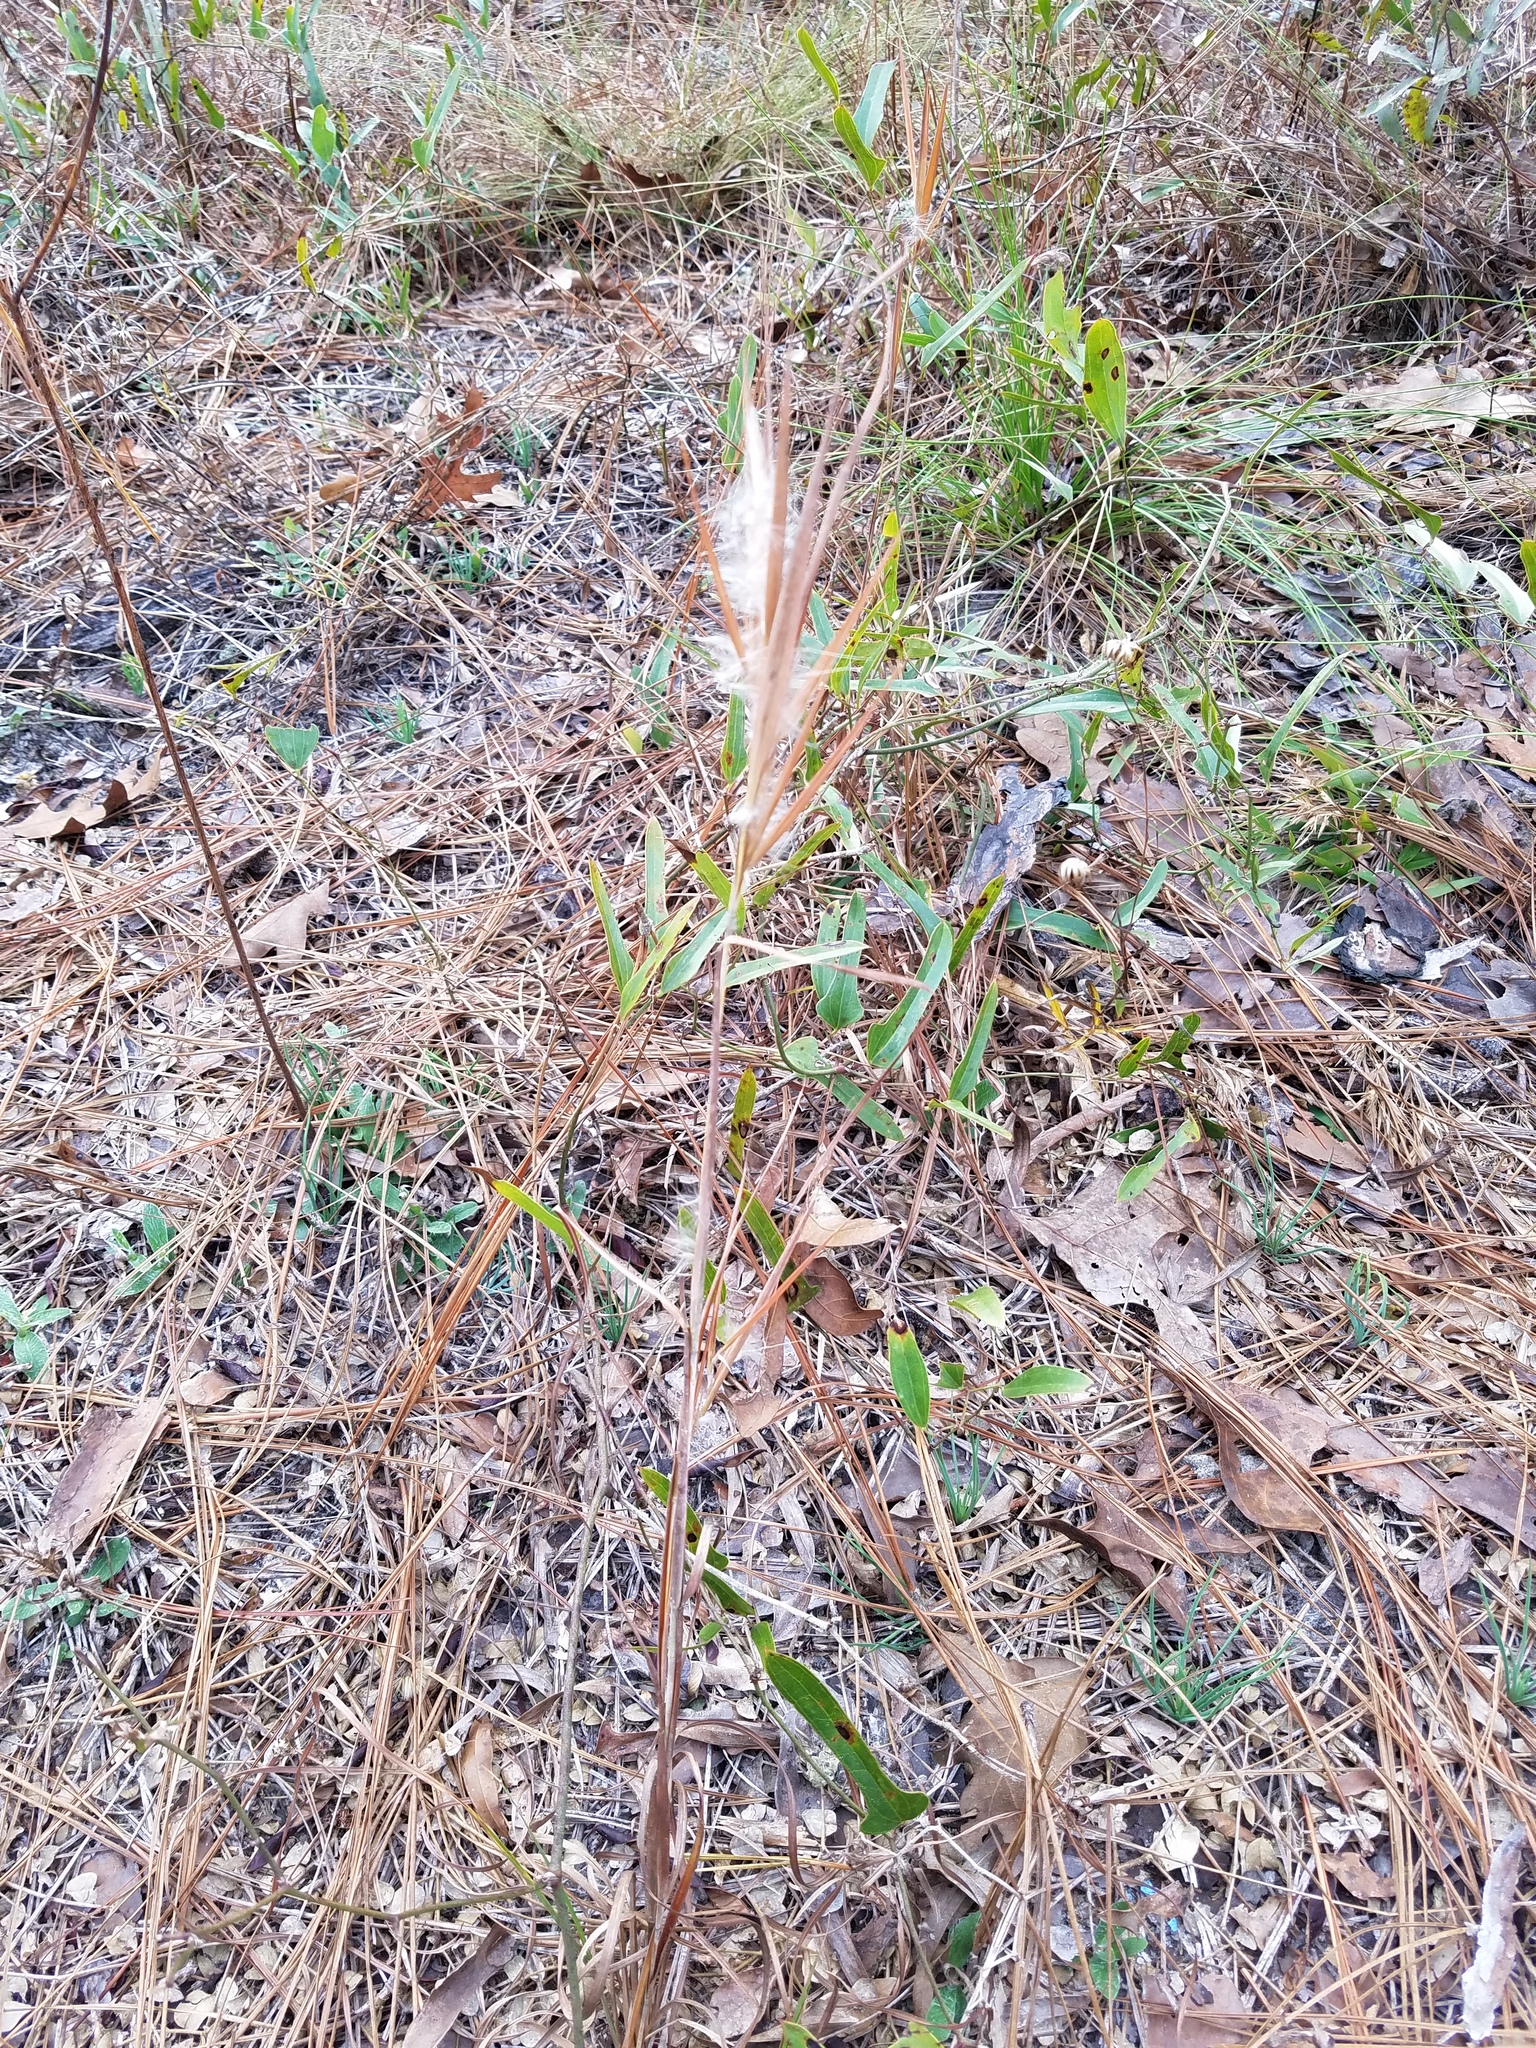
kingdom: Plantae
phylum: Tracheophyta
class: Liliopsida
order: Poales
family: Poaceae
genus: Andropogon
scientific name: Andropogon gyrans
